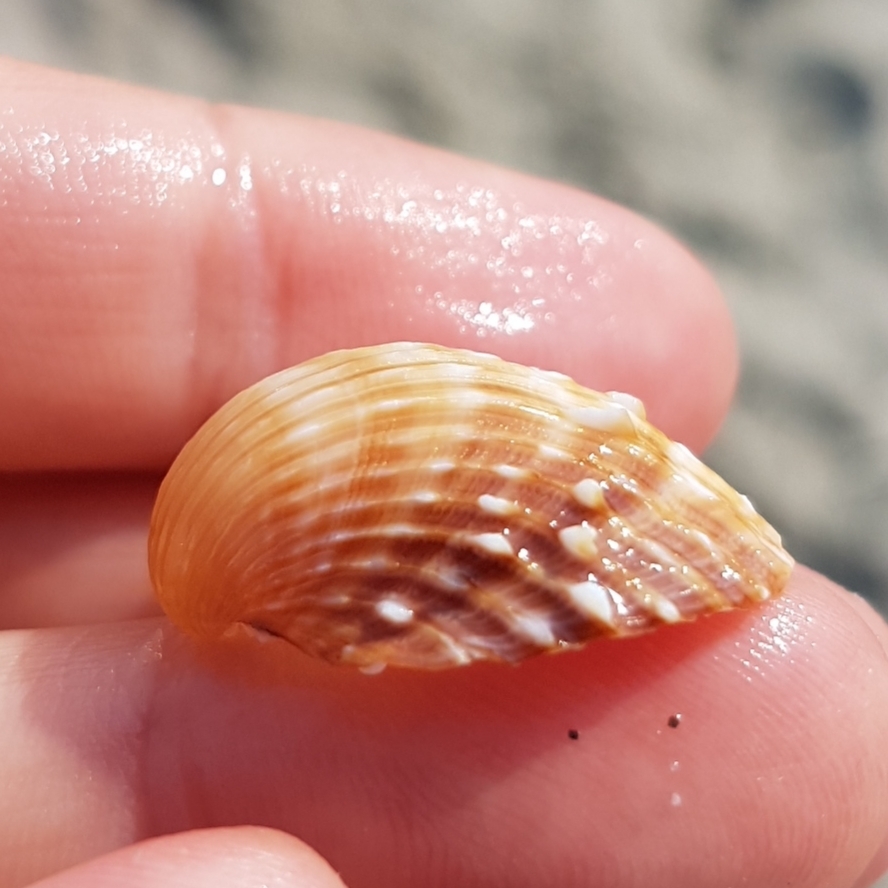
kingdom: Animalia
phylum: Mollusca
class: Bivalvia
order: Cardiida
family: Cardiidae
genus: Acanthocardia
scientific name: Acanthocardia aculeata
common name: Spiny cockle
